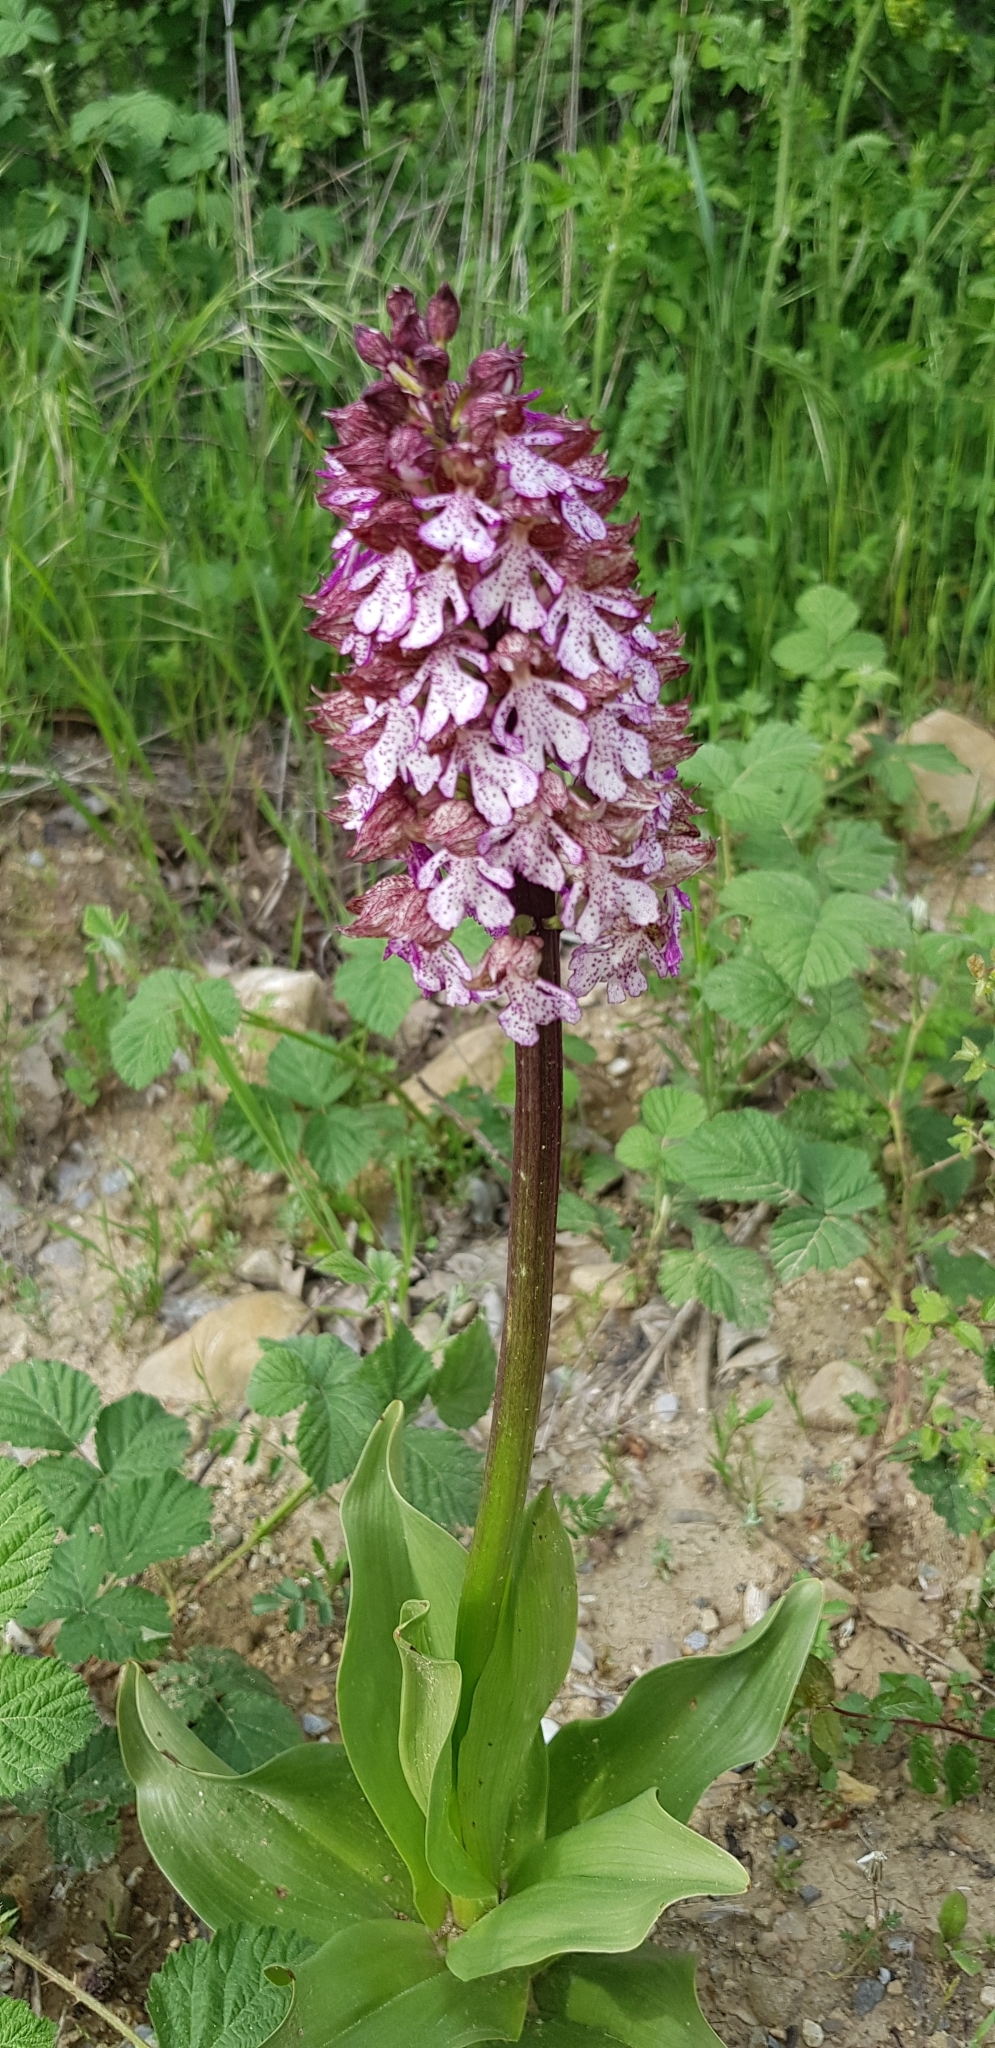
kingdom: Plantae
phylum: Tracheophyta
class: Liliopsida
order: Asparagales
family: Orchidaceae
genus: Orchis
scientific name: Orchis purpurea
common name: Lady orchid
